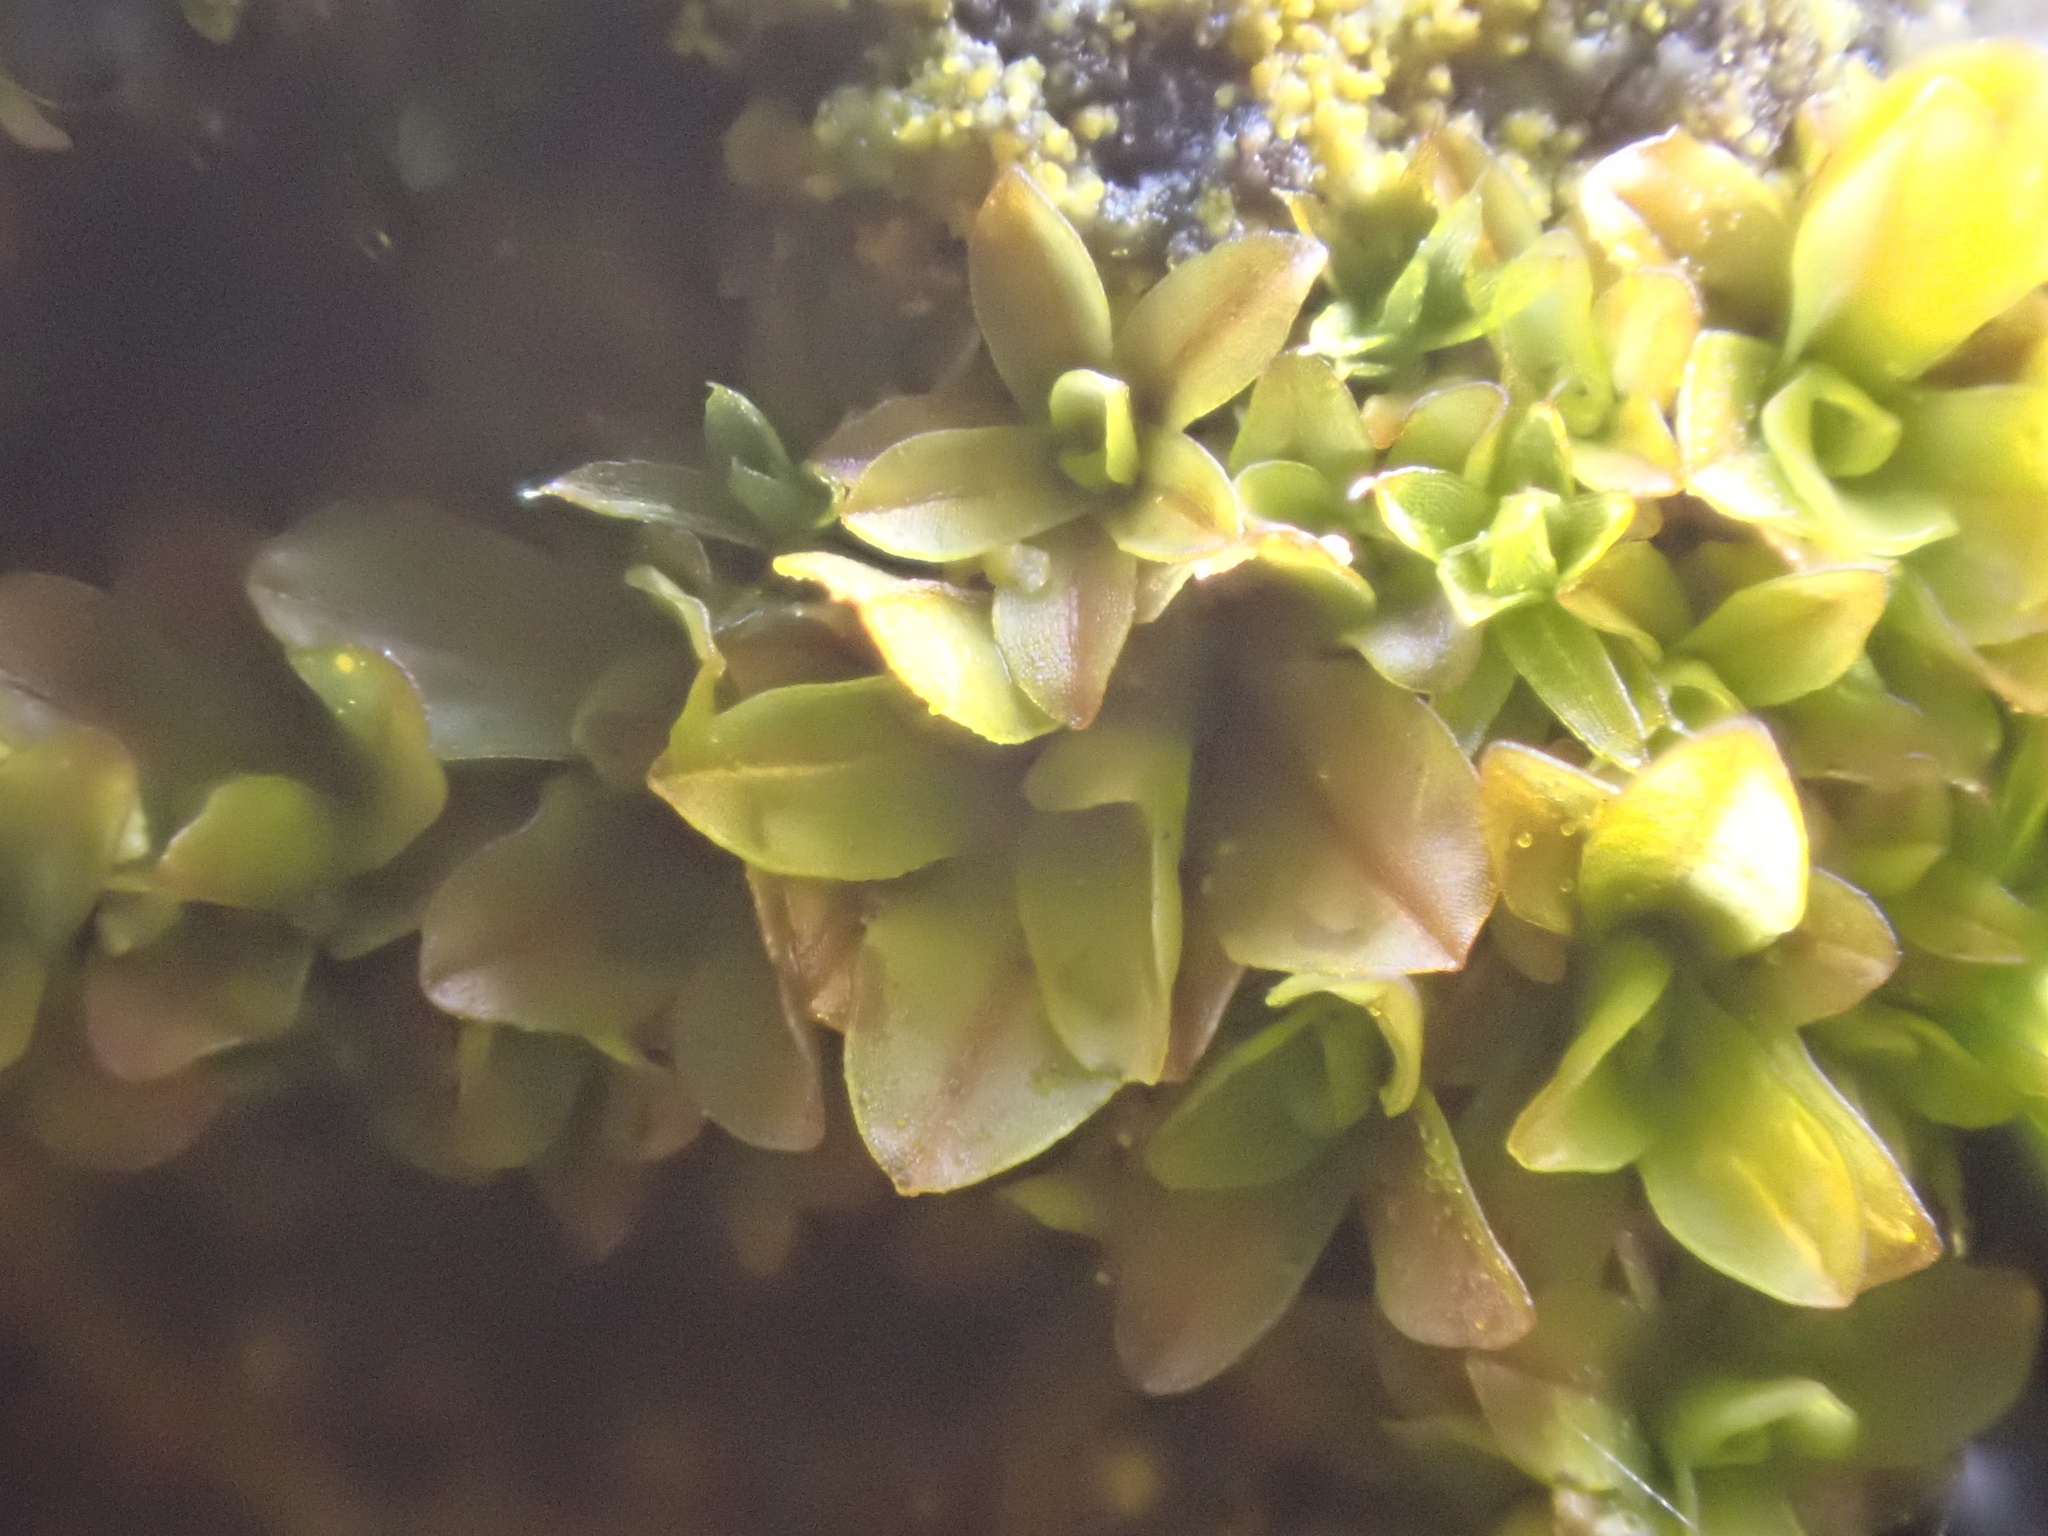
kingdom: Plantae
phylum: Bryophyta
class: Bryopsida
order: Pottiales
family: Pottiaceae
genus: Syntrichia
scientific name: Syntrichia latifolia
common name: Water screw-moss
